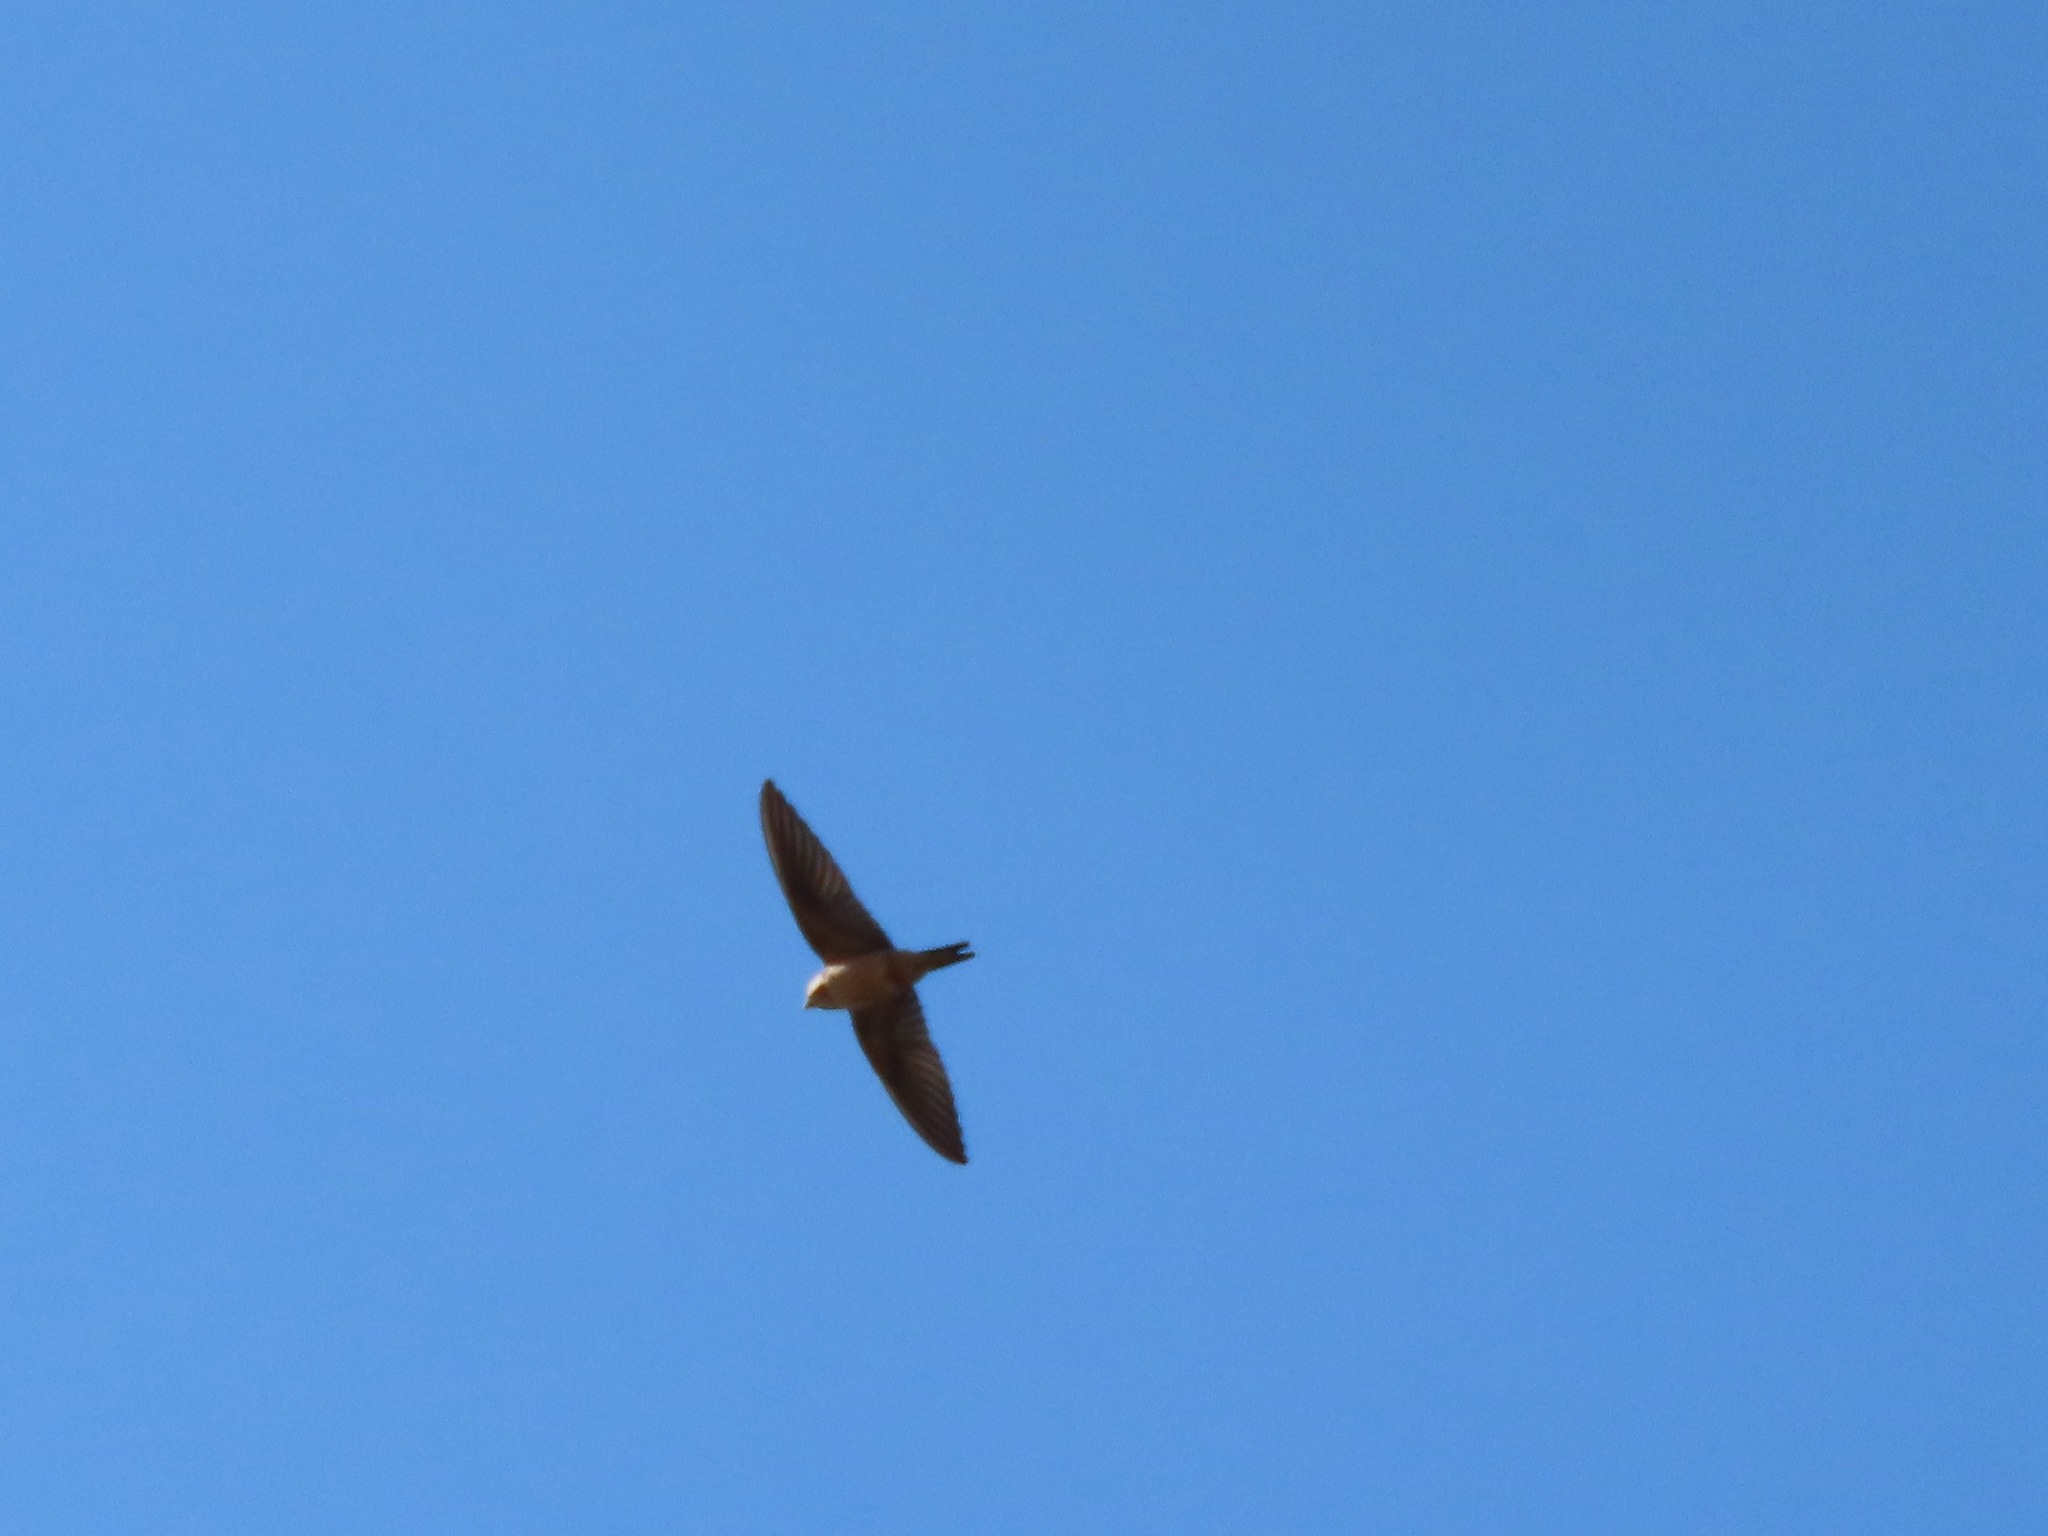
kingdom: Animalia
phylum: Chordata
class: Aves
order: Passeriformes
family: Hirundinidae
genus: Hirundo
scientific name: Hirundo rustica
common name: Barn swallow
